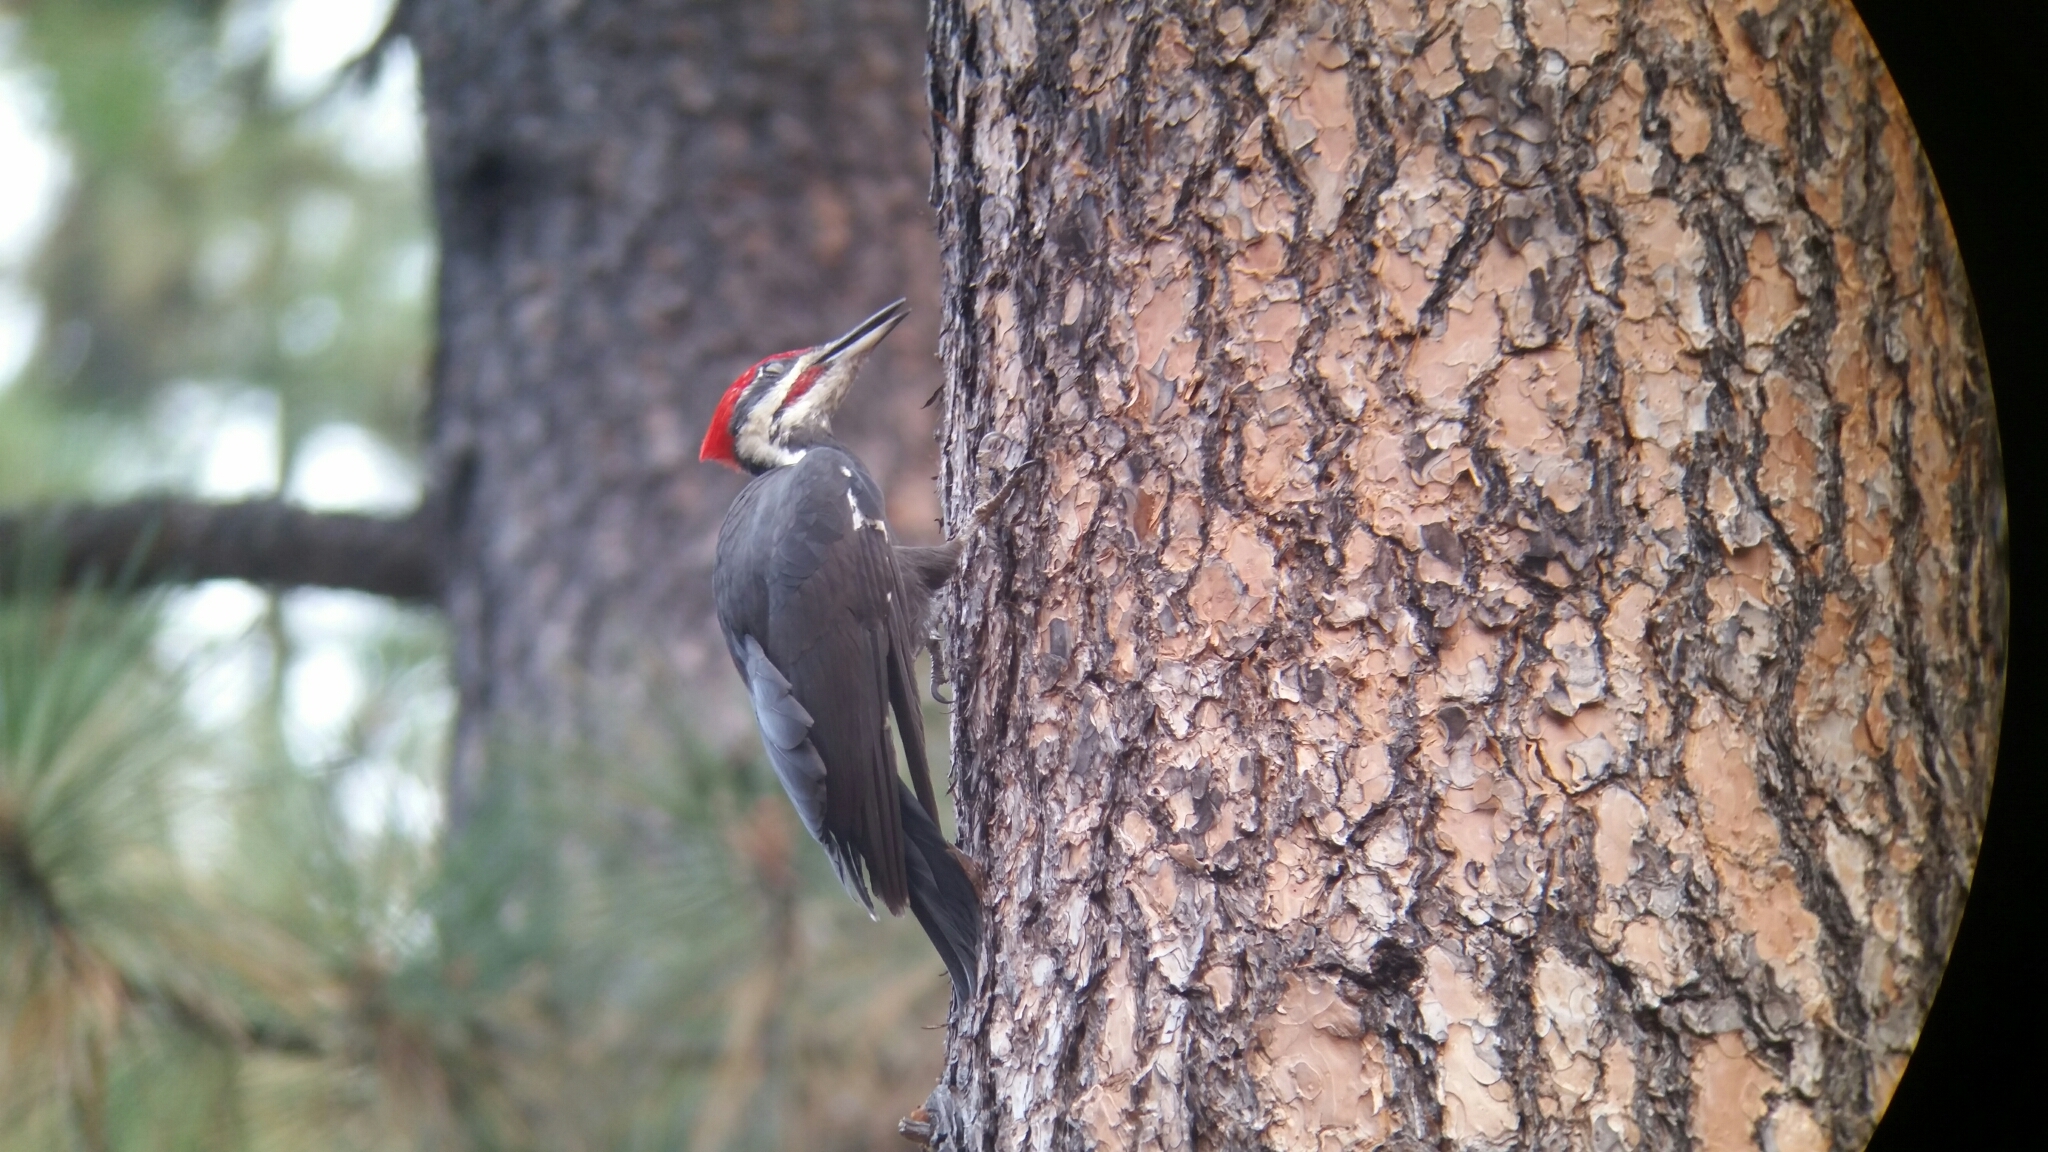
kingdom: Animalia
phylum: Chordata
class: Aves
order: Piciformes
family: Picidae
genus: Dryocopus
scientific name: Dryocopus pileatus
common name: Pileated woodpecker
